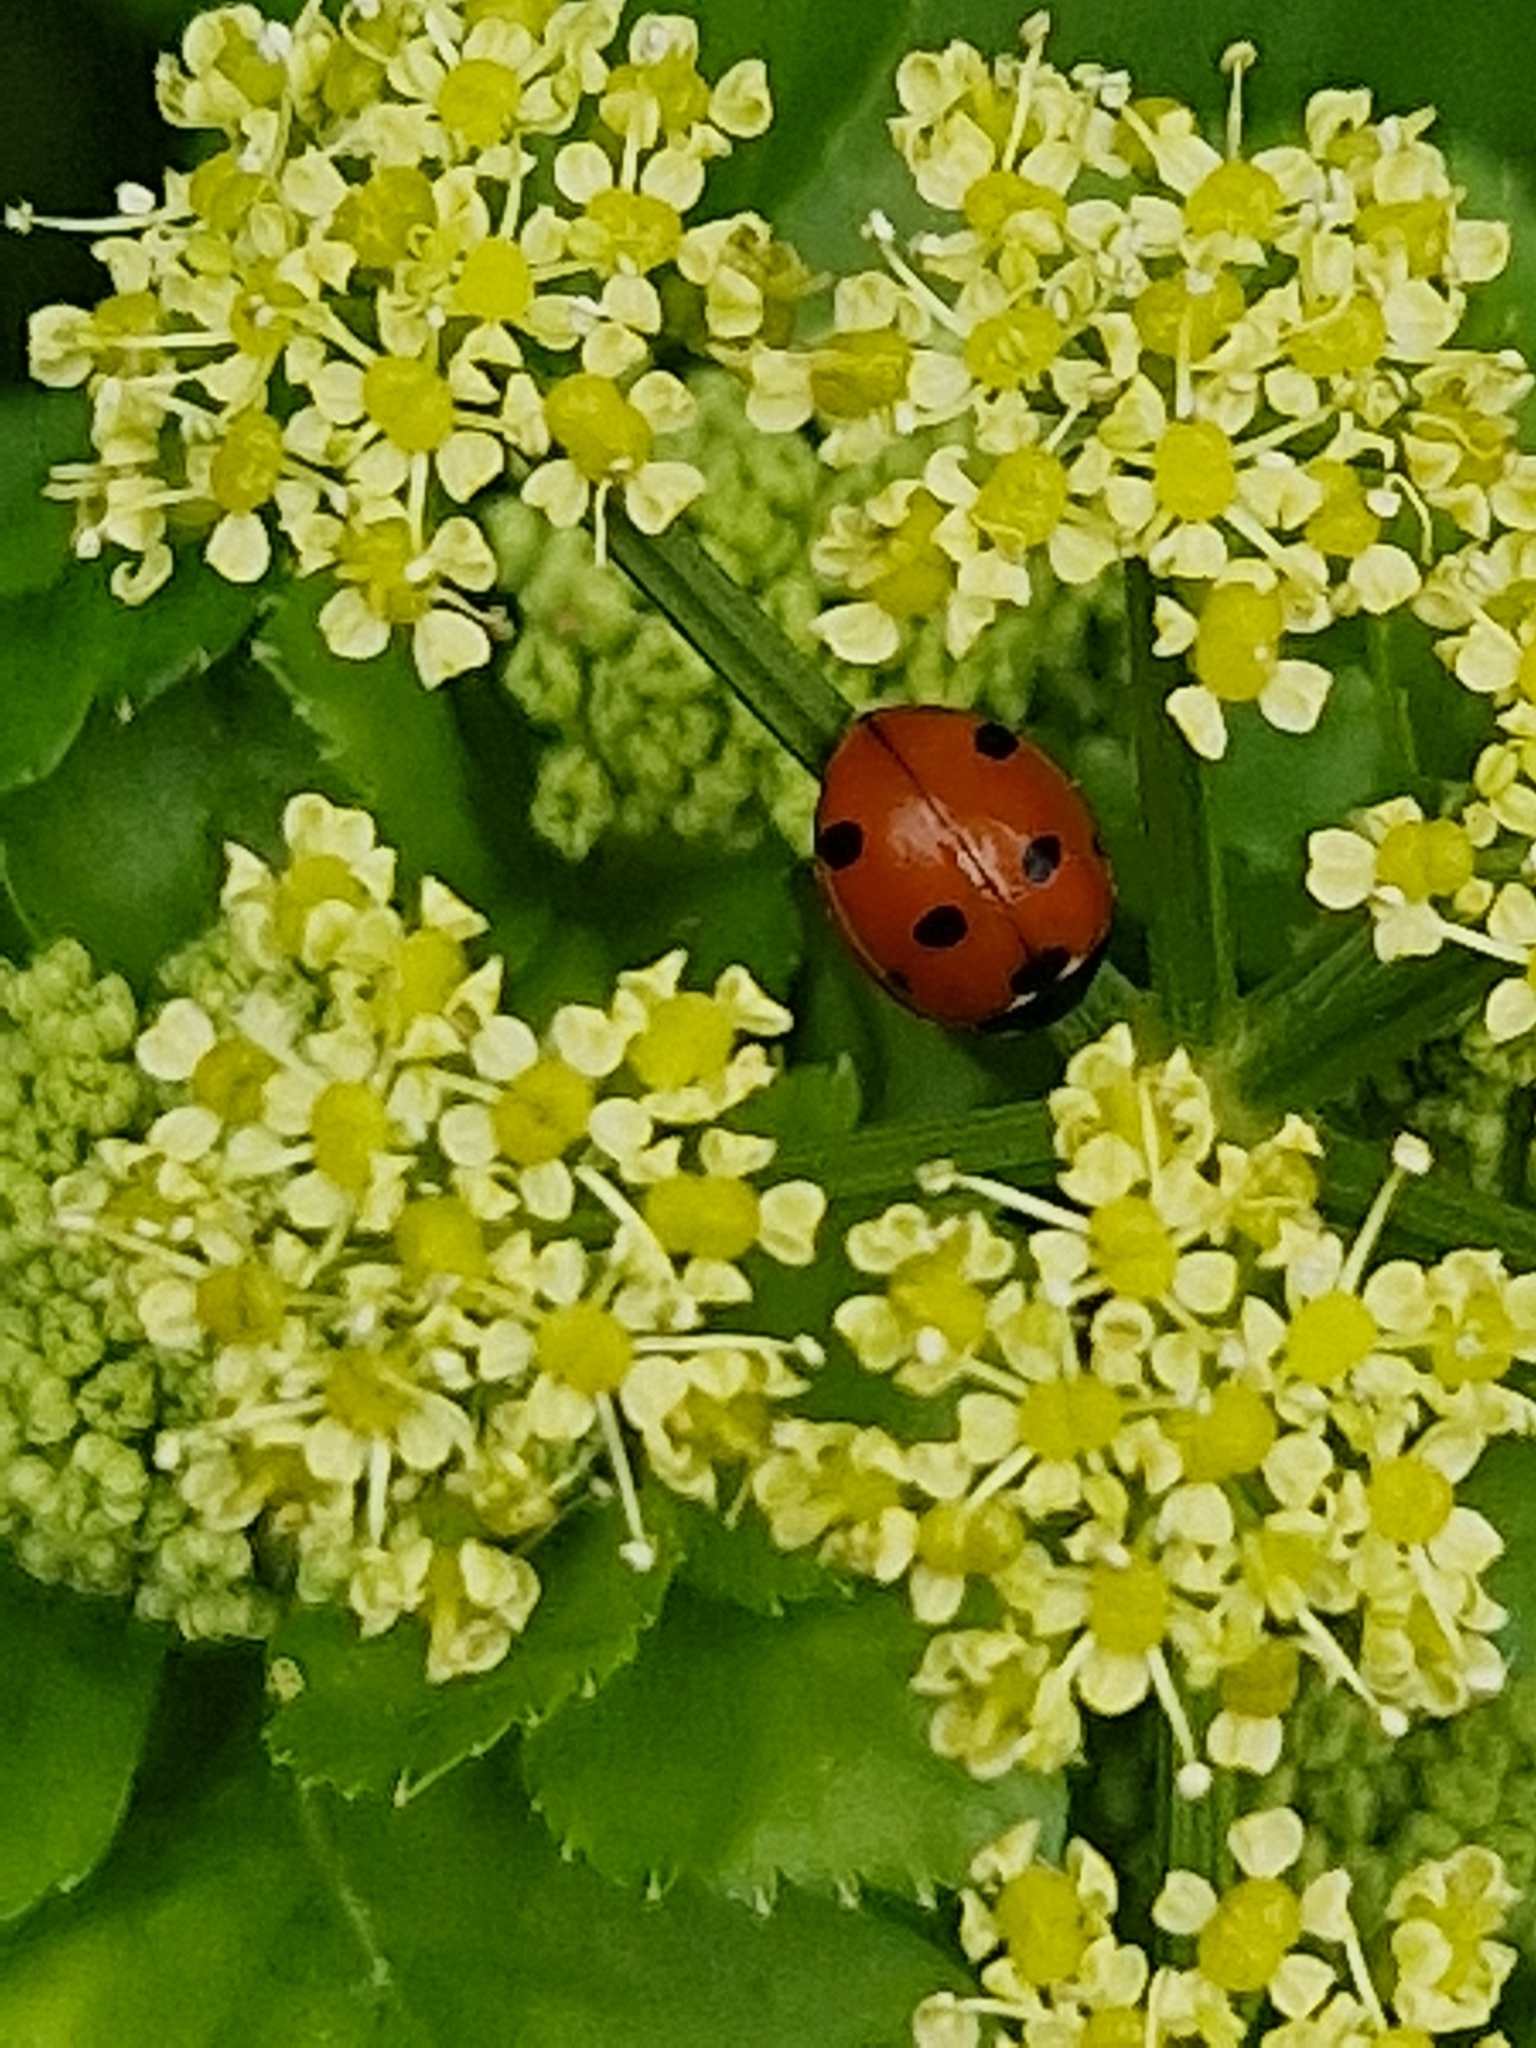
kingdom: Animalia
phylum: Arthropoda
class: Insecta
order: Coleoptera
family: Coccinellidae
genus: Coccinella
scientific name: Coccinella septempunctata
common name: Sevenspotted lady beetle
